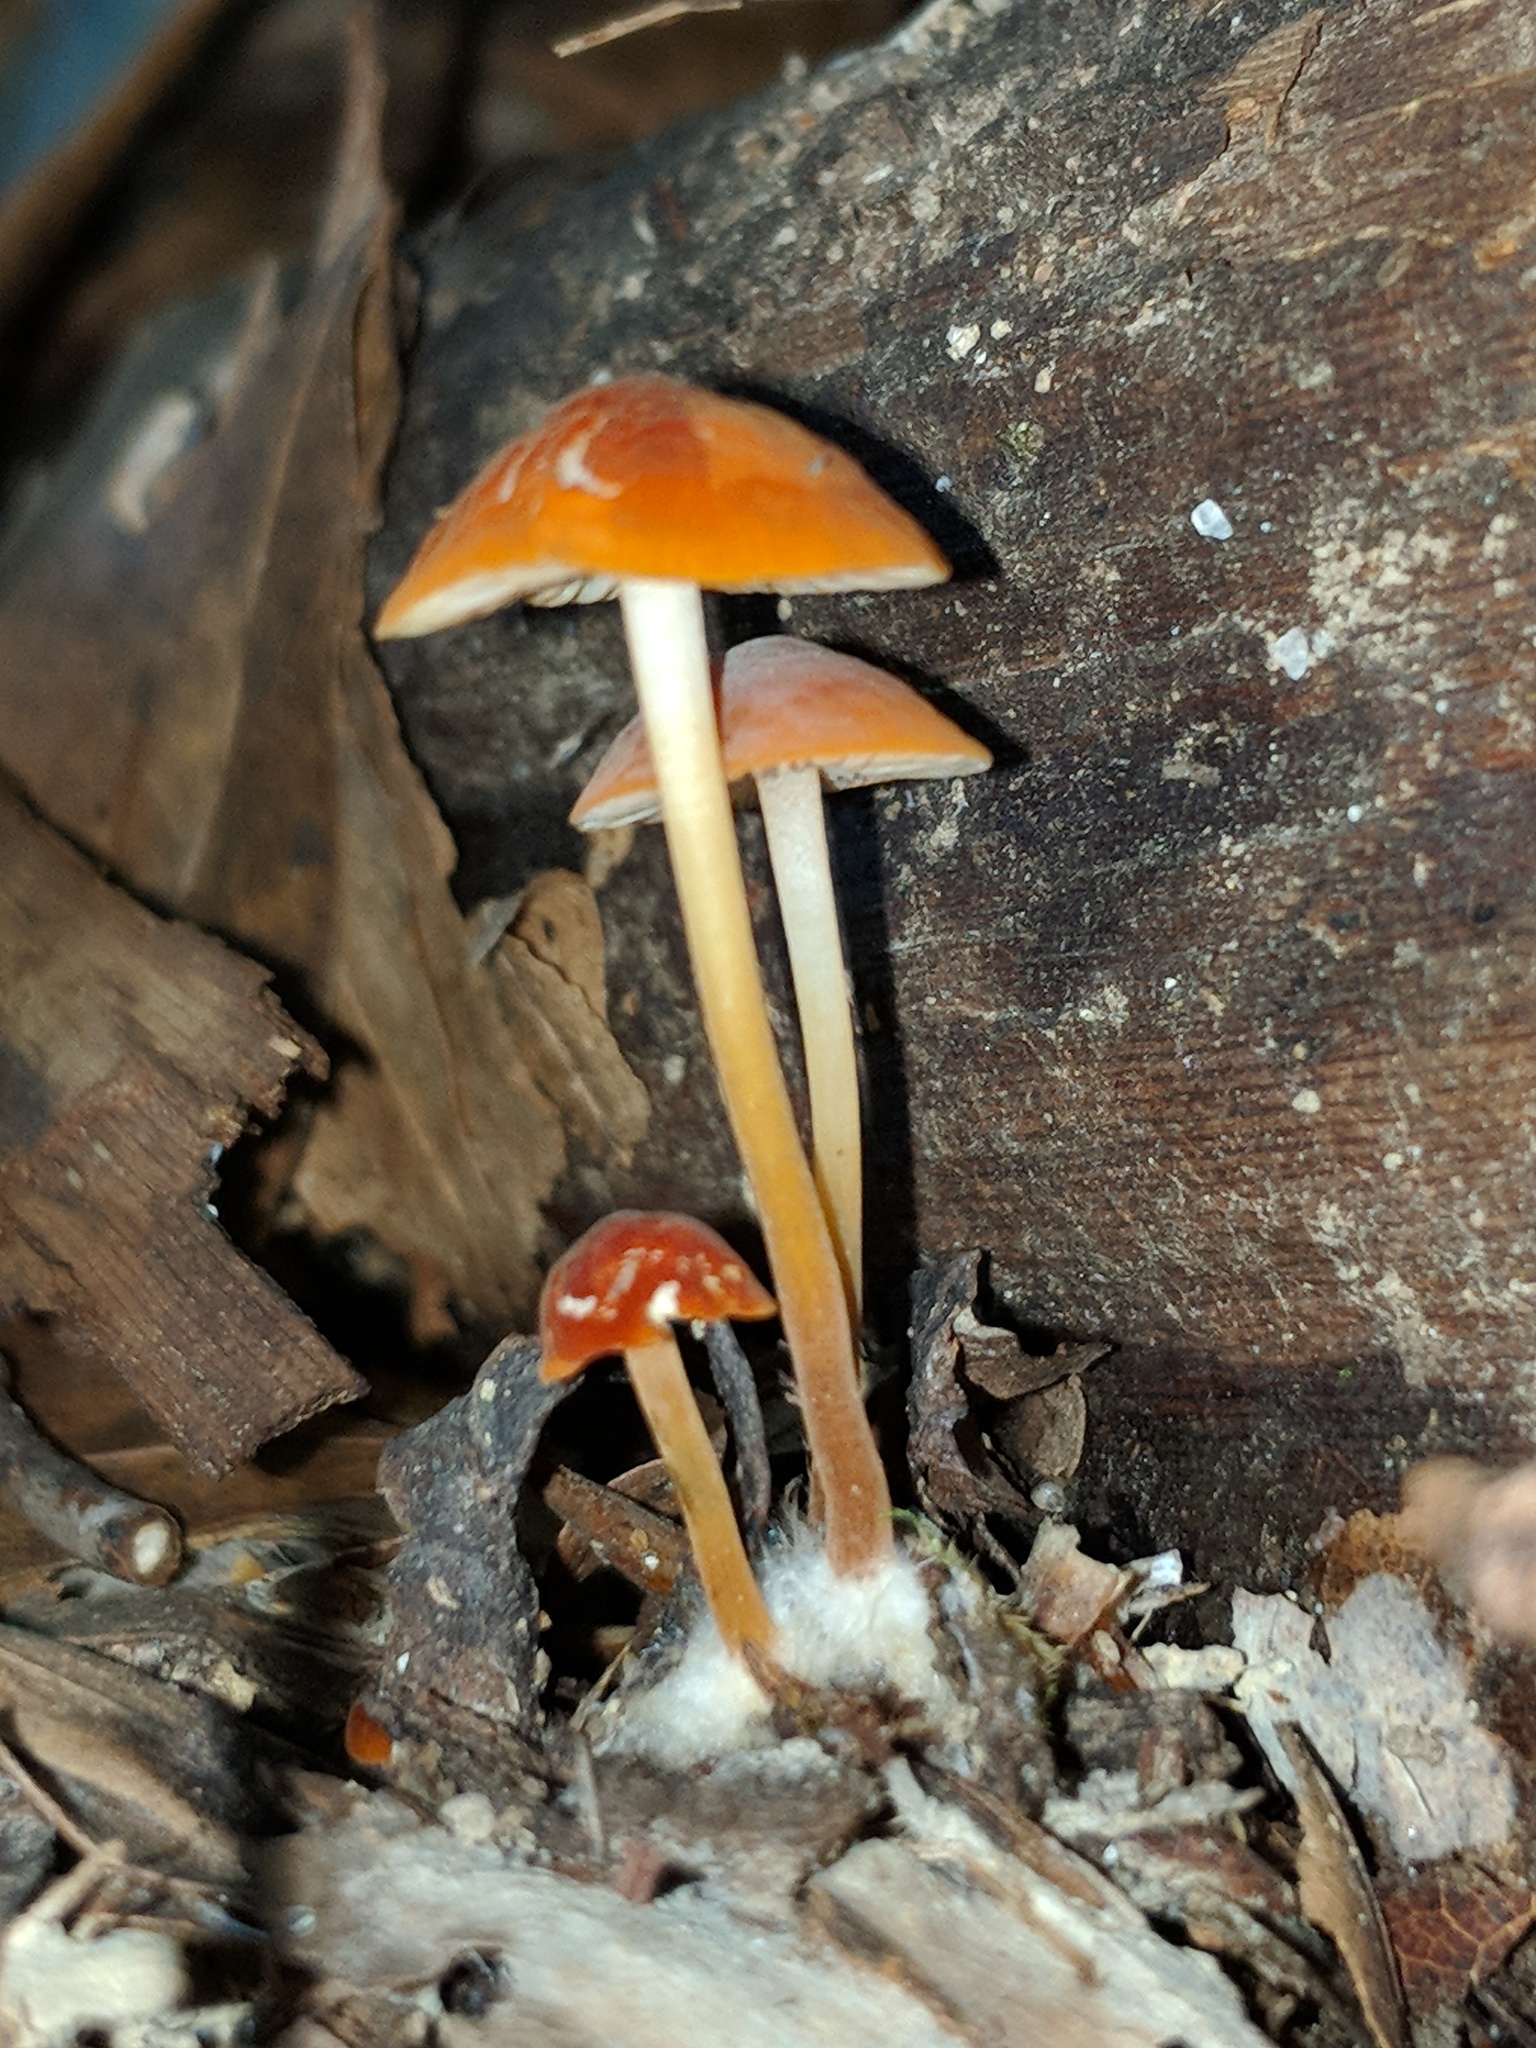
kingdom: Fungi
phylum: Basidiomycota
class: Agaricomycetes
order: Agaricales
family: Marasmiaceae
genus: Marasmius
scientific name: Marasmius sullivantii
